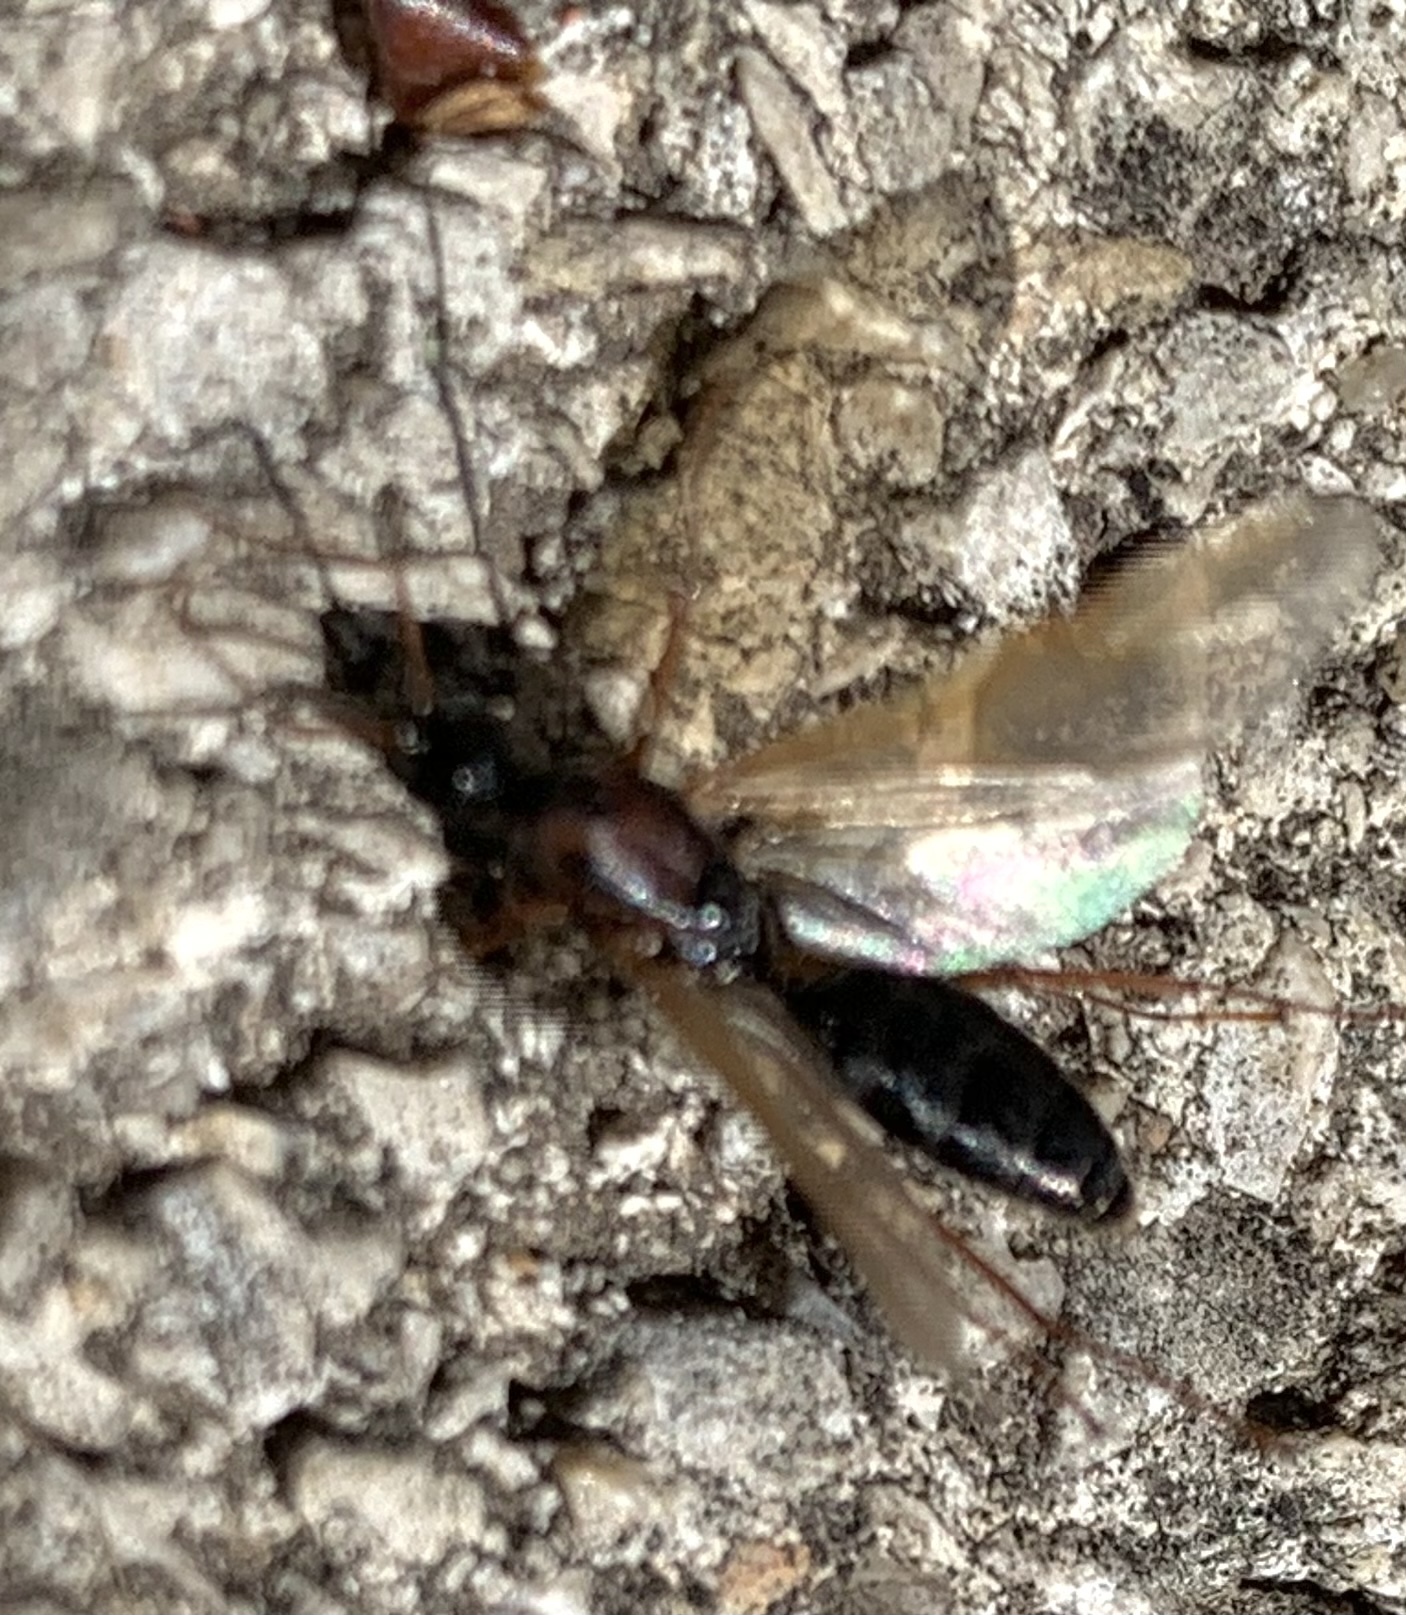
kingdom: Animalia
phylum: Arthropoda
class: Insecta
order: Hymenoptera
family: Formicidae
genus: Camponotus
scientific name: Camponotus texanus
